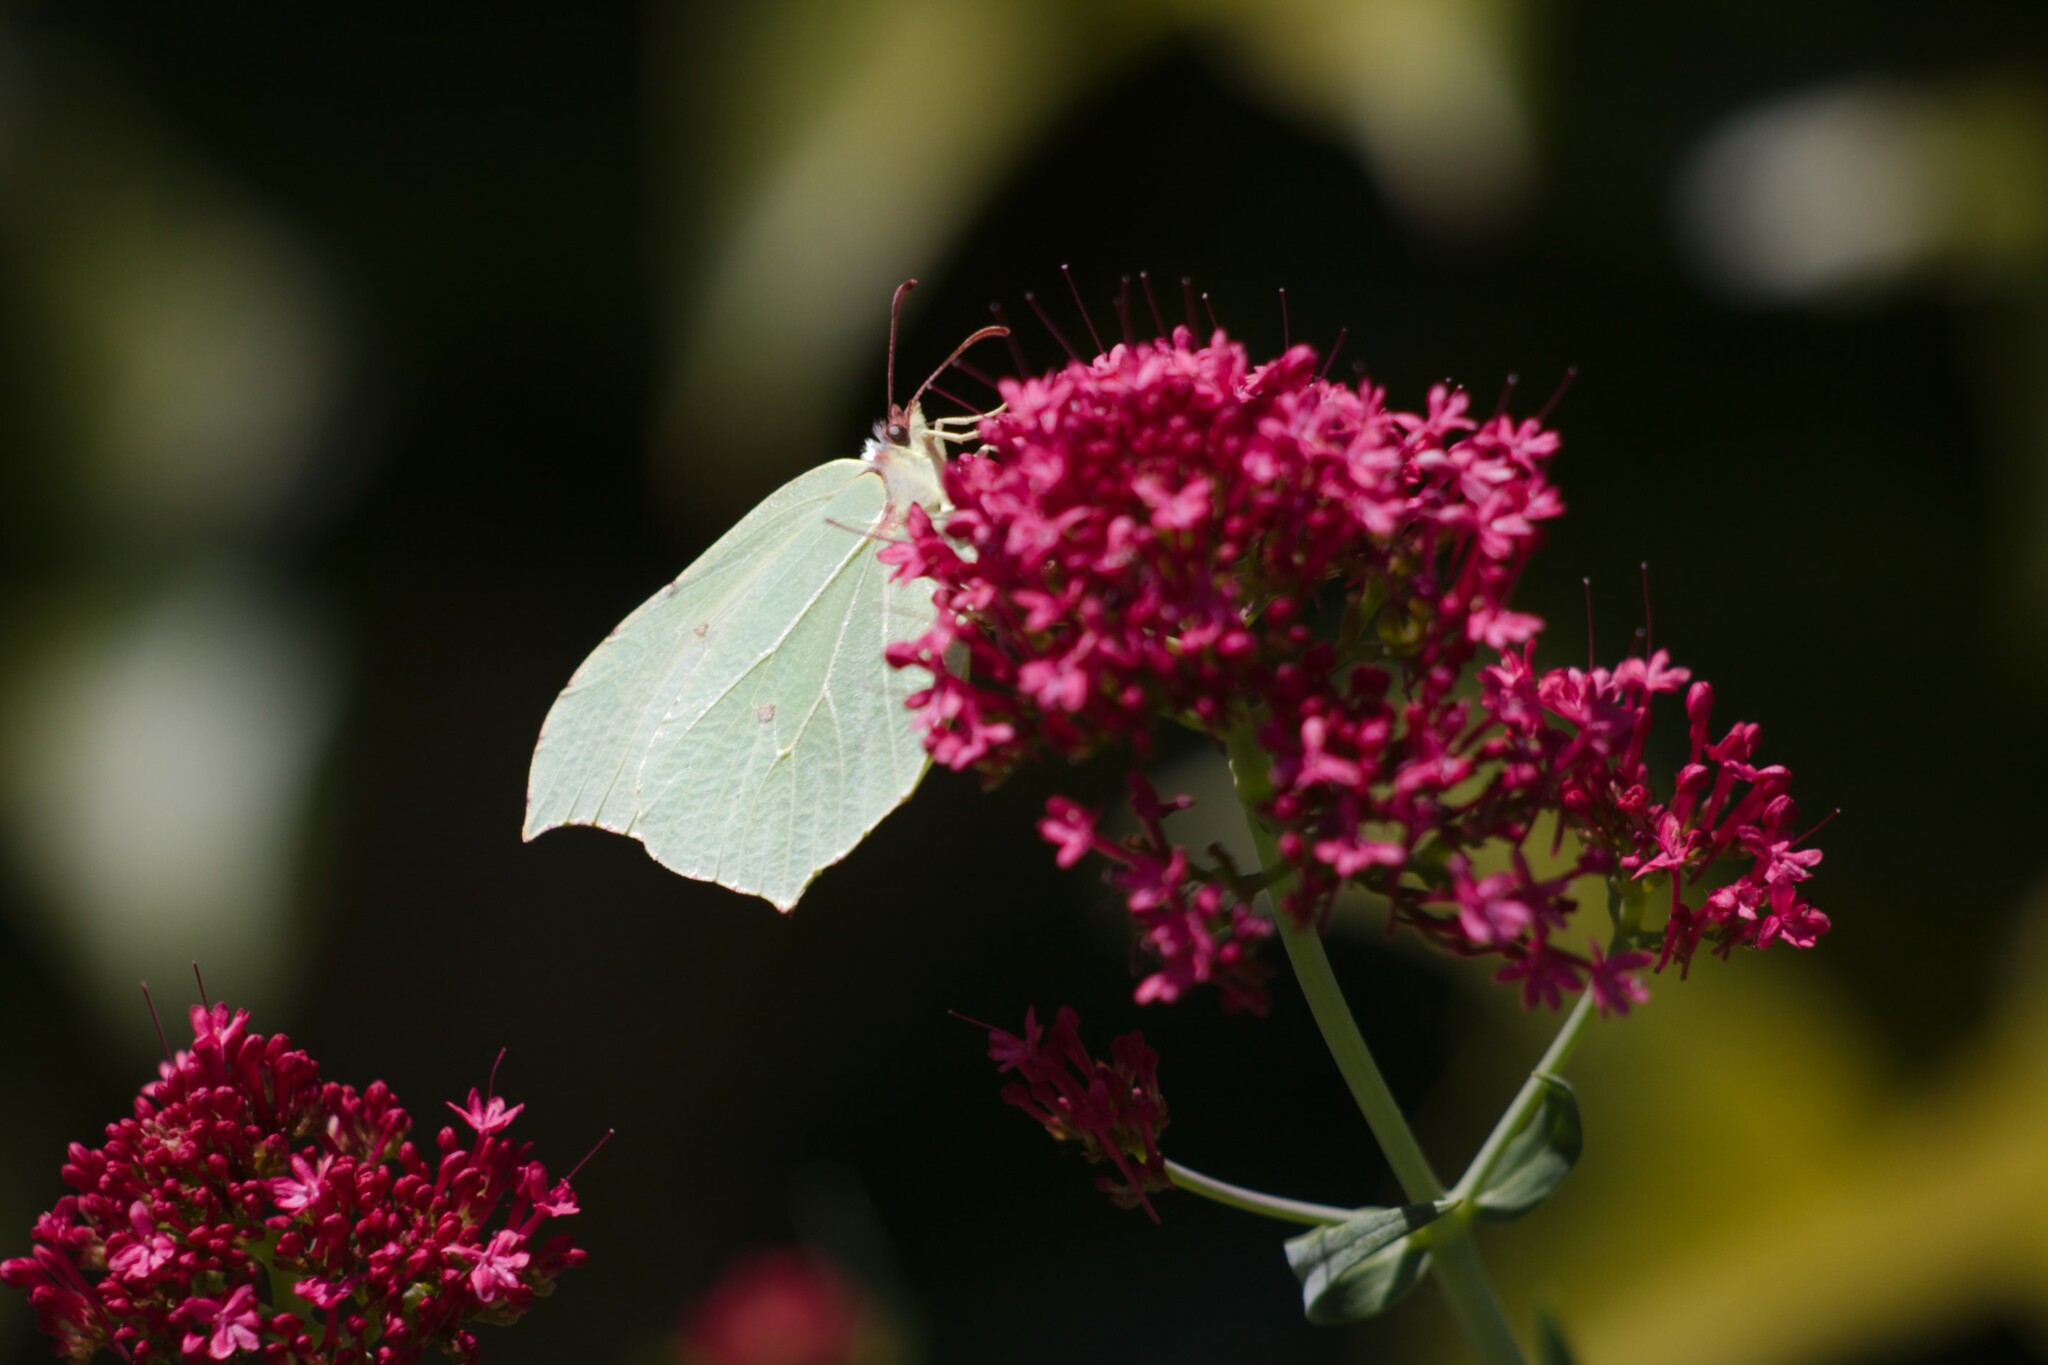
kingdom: Animalia
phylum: Arthropoda
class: Insecta
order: Lepidoptera
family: Pieridae
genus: Gonepteryx
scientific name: Gonepteryx rhamni
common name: Brimstone
